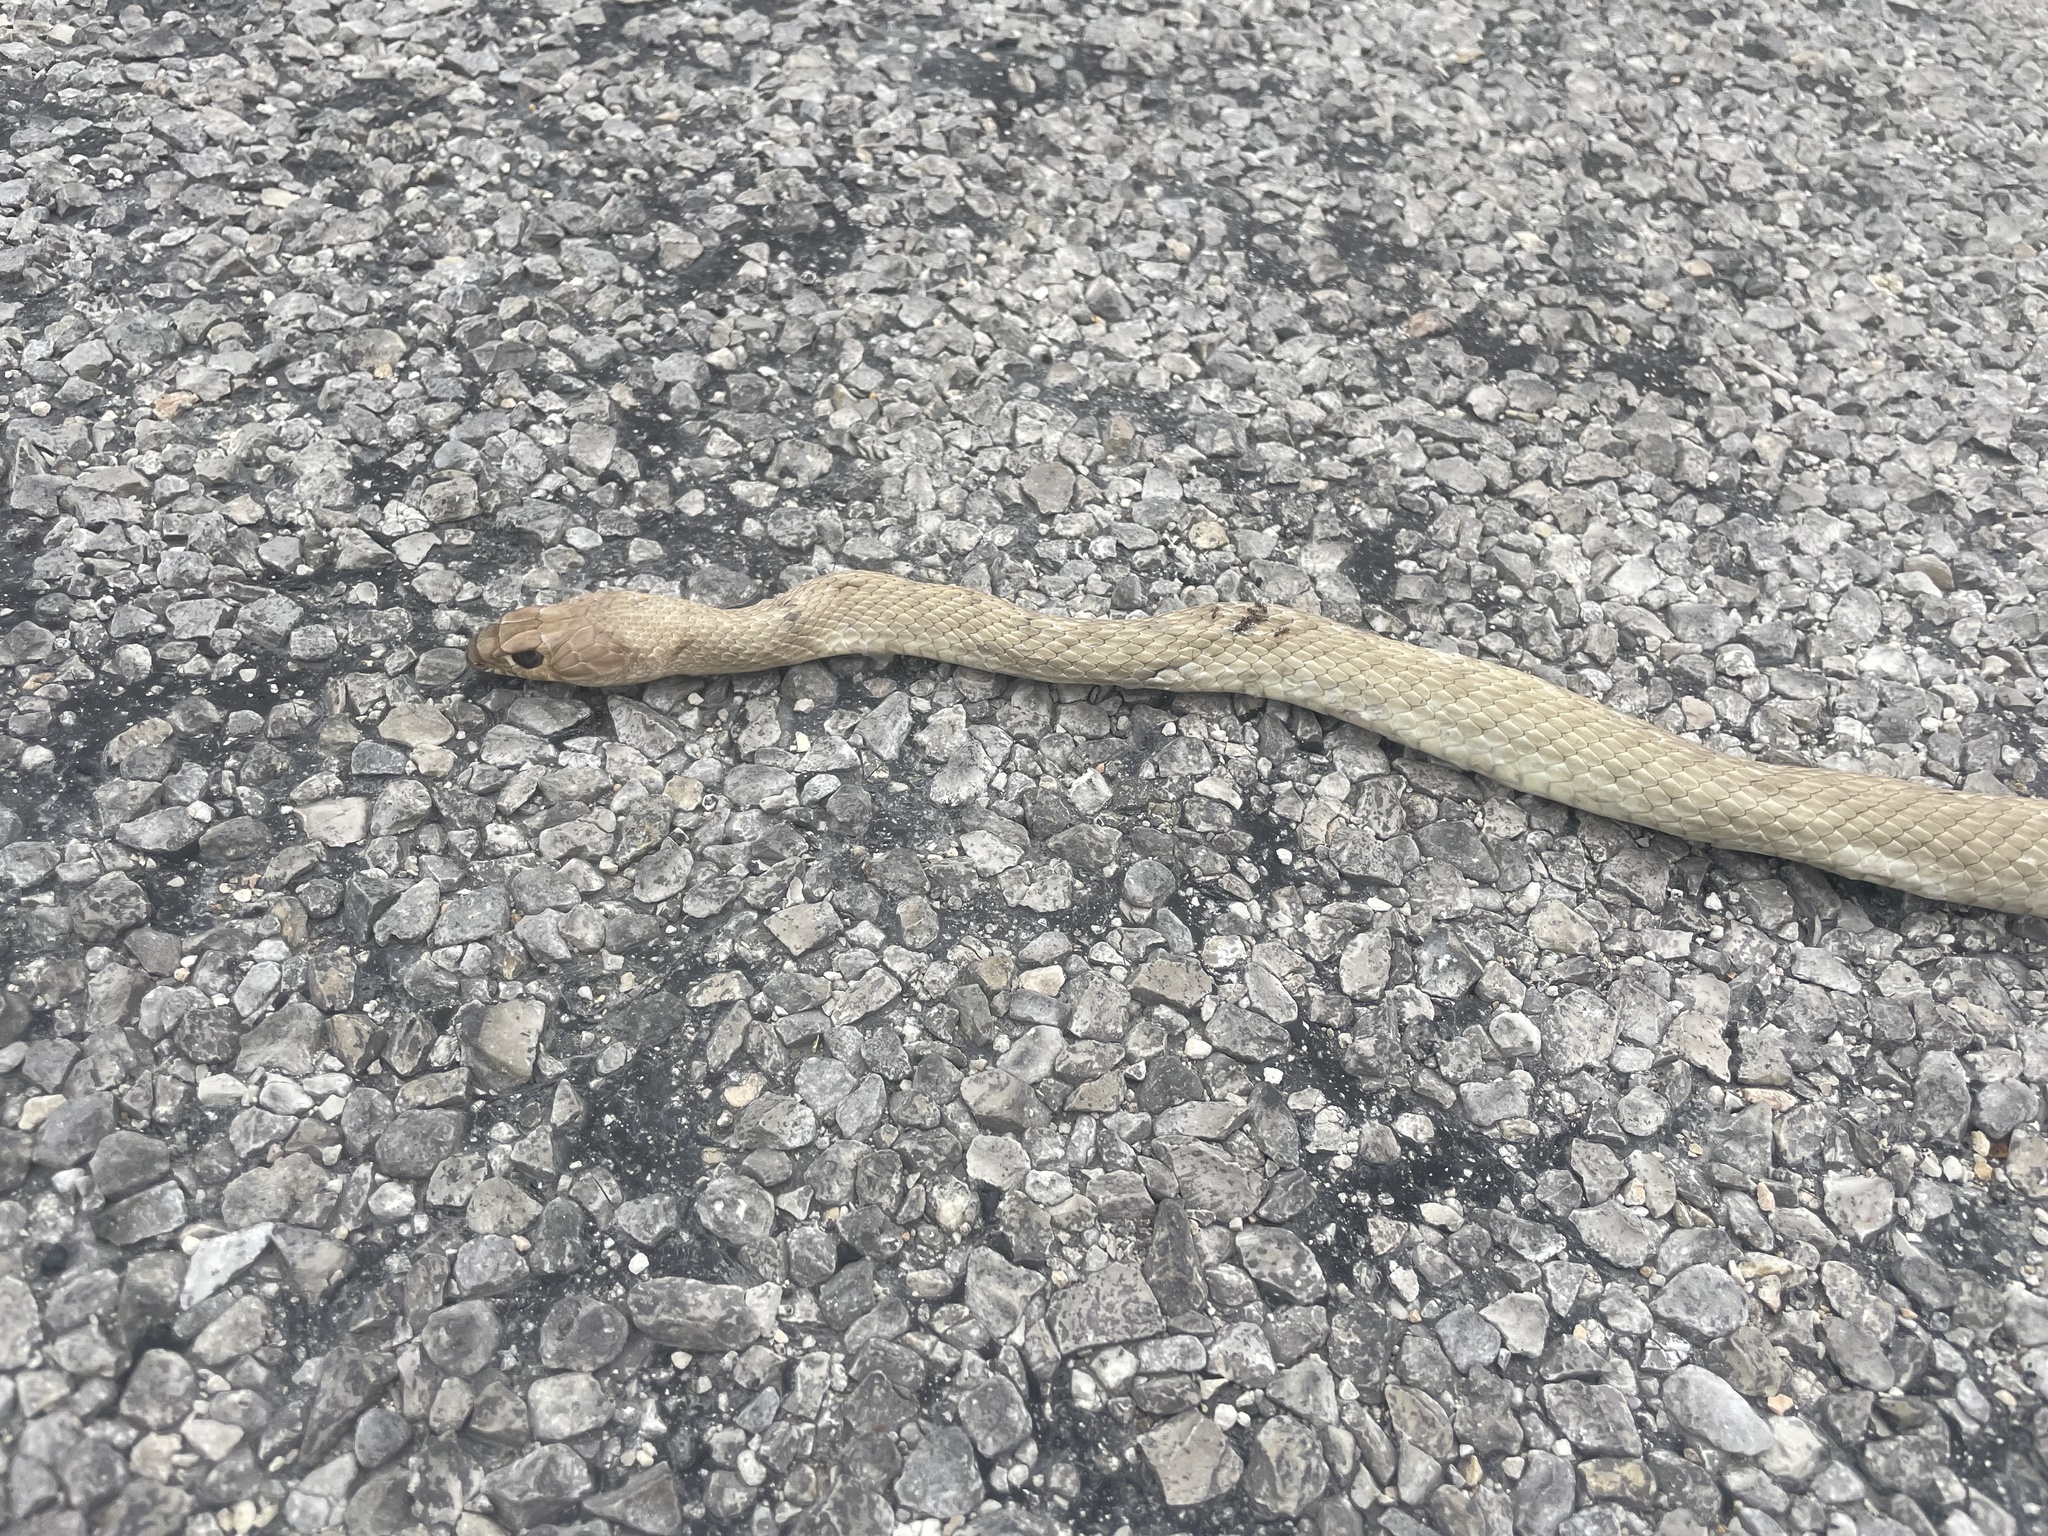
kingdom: Animalia
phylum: Chordata
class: Squamata
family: Colubridae
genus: Masticophis
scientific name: Masticophis flagellum
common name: Coachwhip
